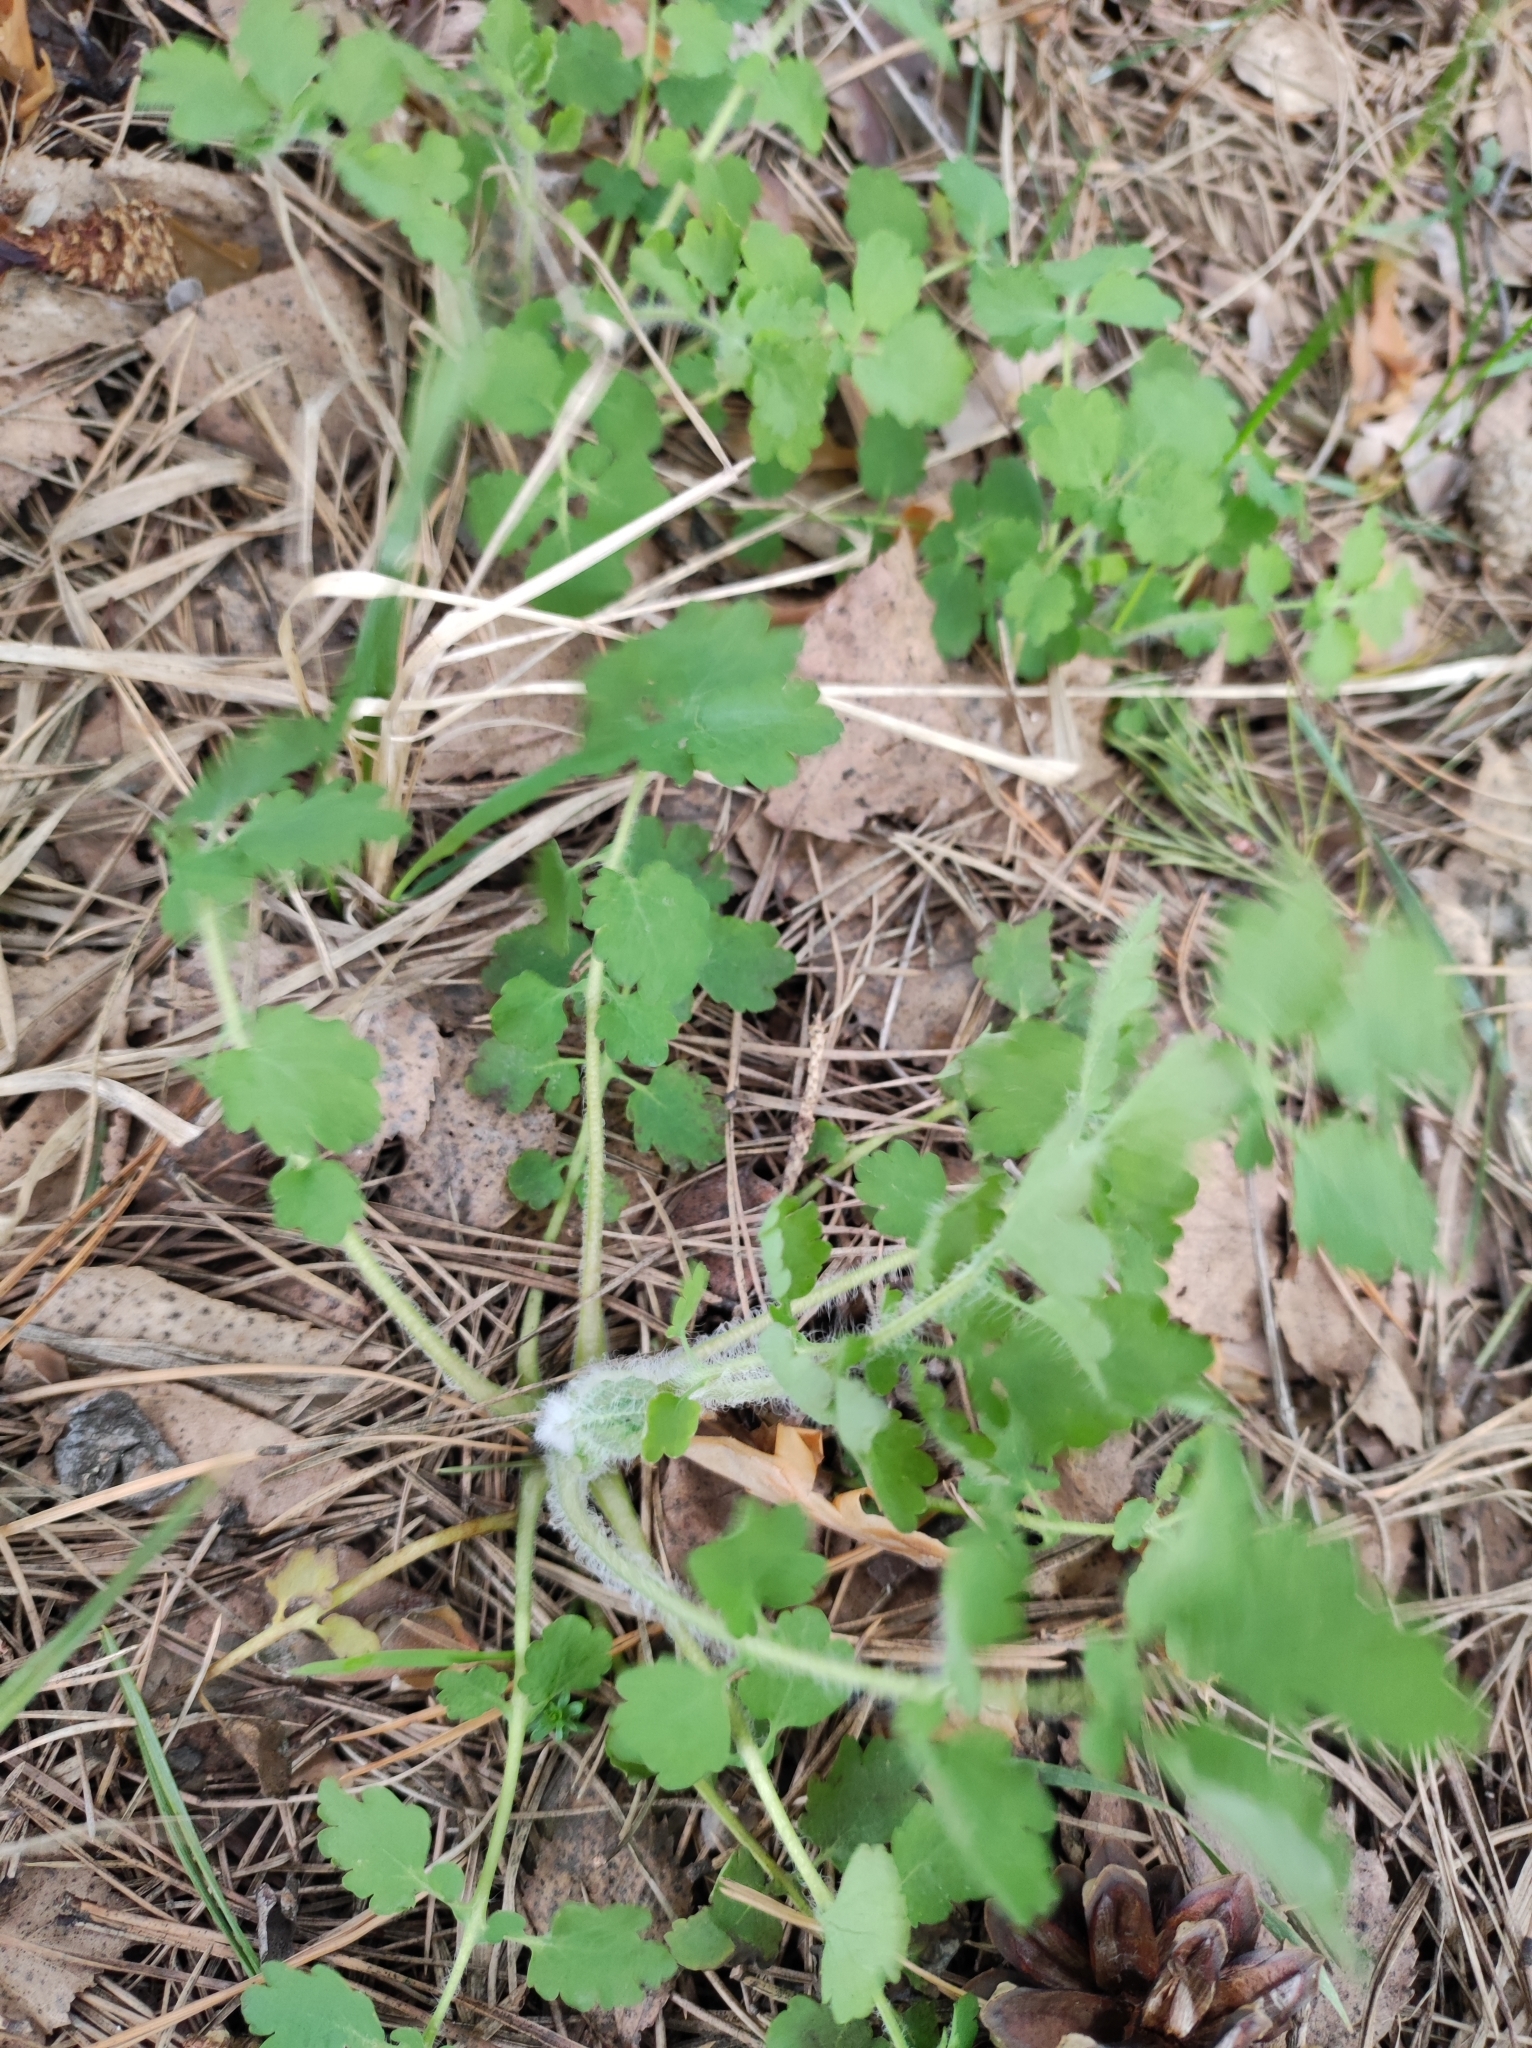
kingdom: Plantae
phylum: Tracheophyta
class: Magnoliopsida
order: Ranunculales
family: Papaveraceae
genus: Chelidonium
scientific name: Chelidonium majus
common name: Greater celandine
